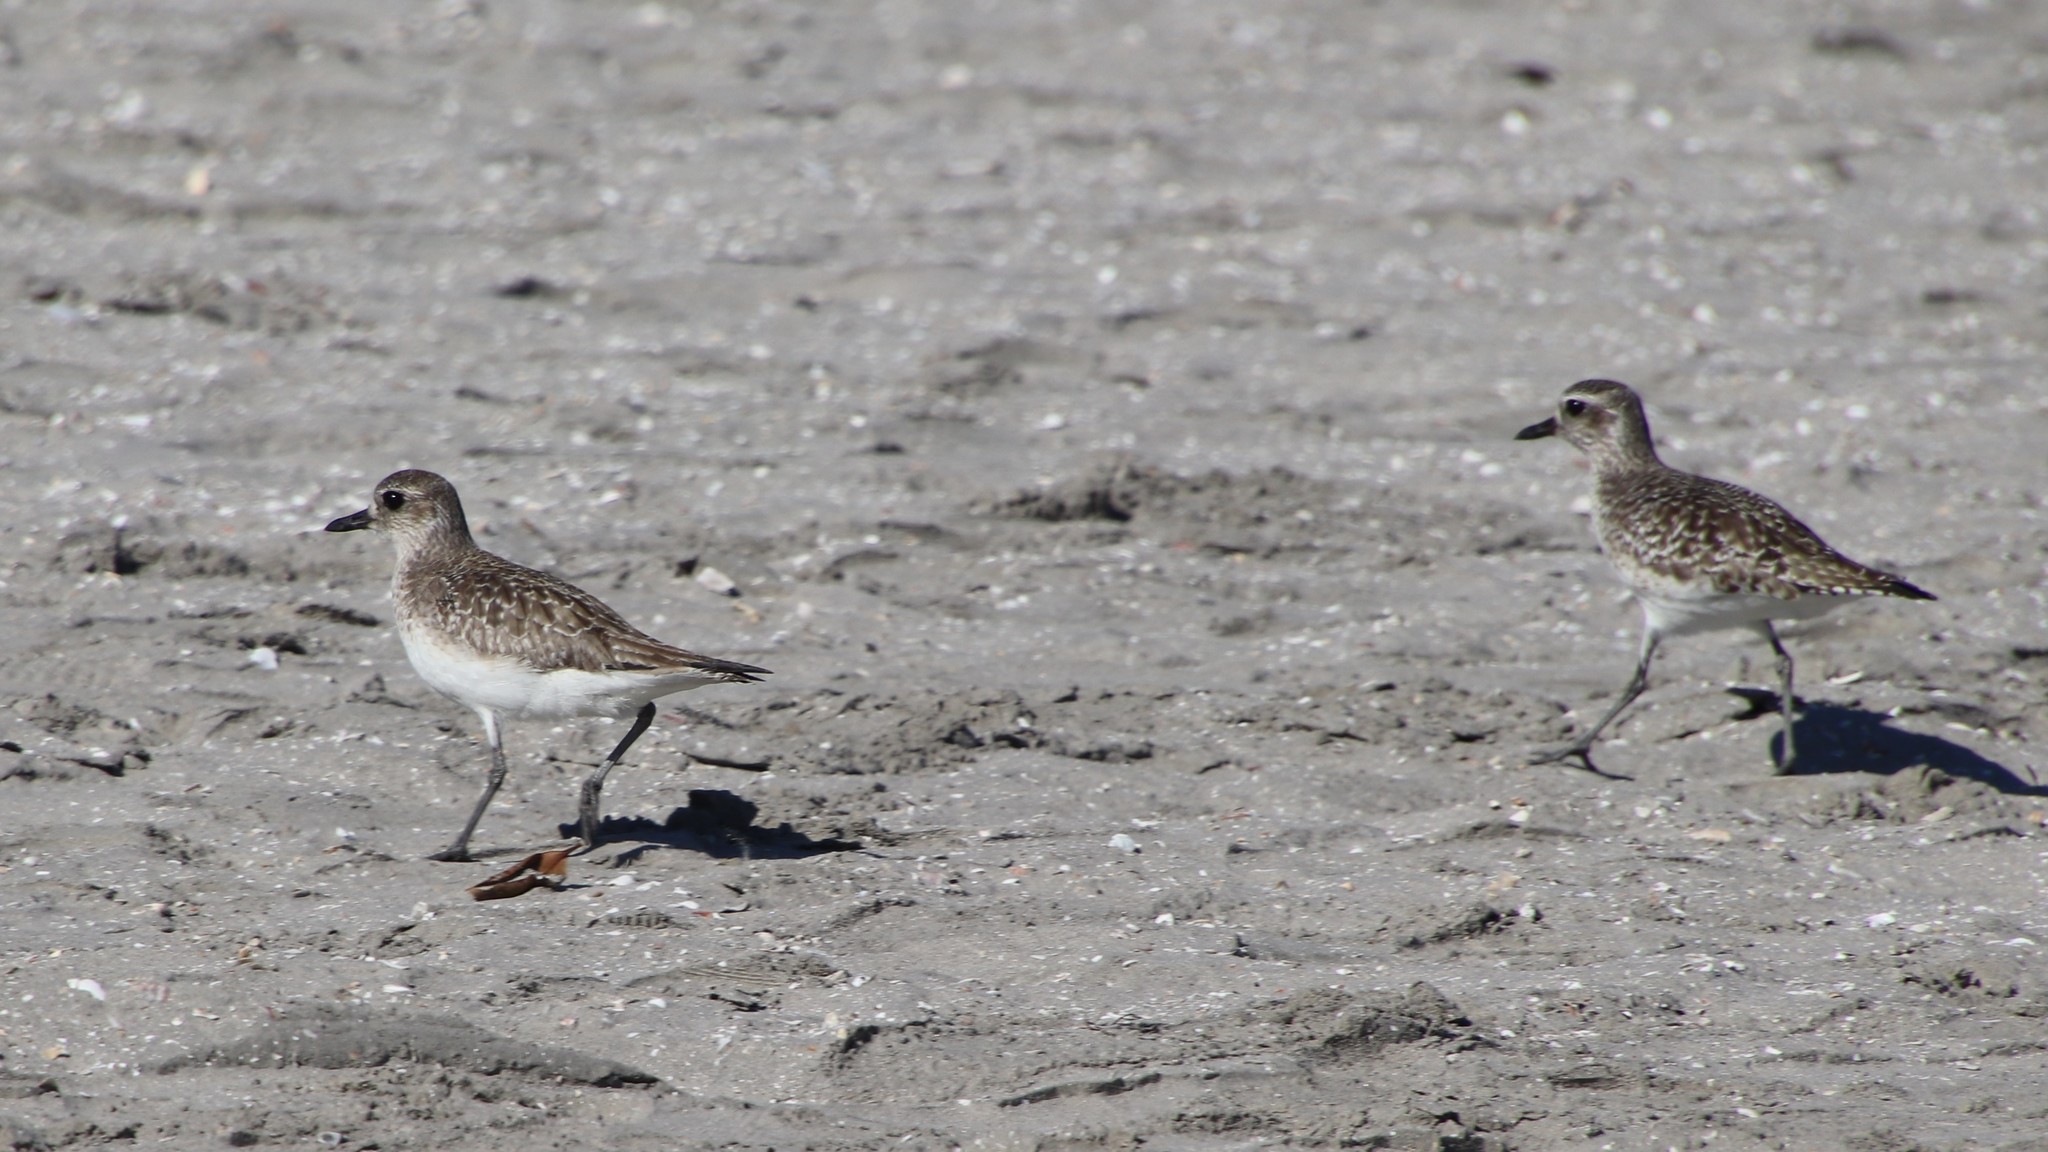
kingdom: Animalia
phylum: Chordata
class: Aves
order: Charadriiformes
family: Charadriidae
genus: Pluvialis
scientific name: Pluvialis squatarola
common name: Grey plover
